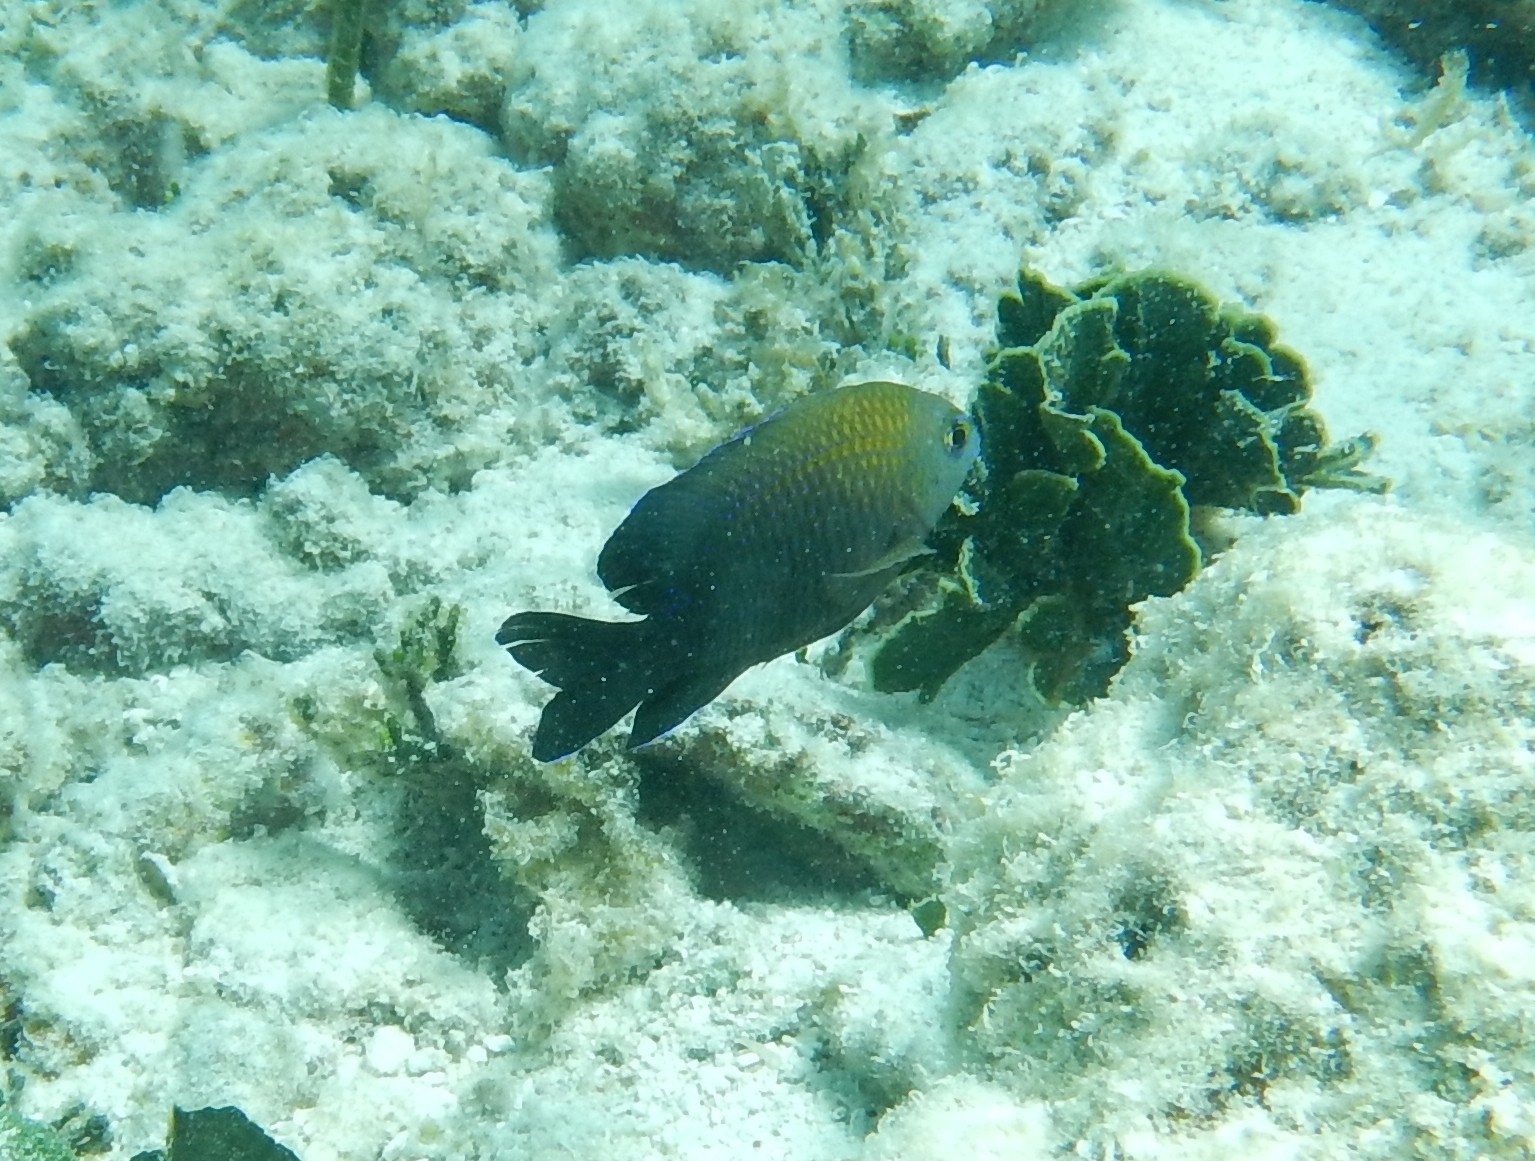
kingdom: Animalia
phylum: Chordata
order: Perciformes
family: Pomacentridae
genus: Stegastes
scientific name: Stegastes diencaeus
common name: Longfin damselfish
